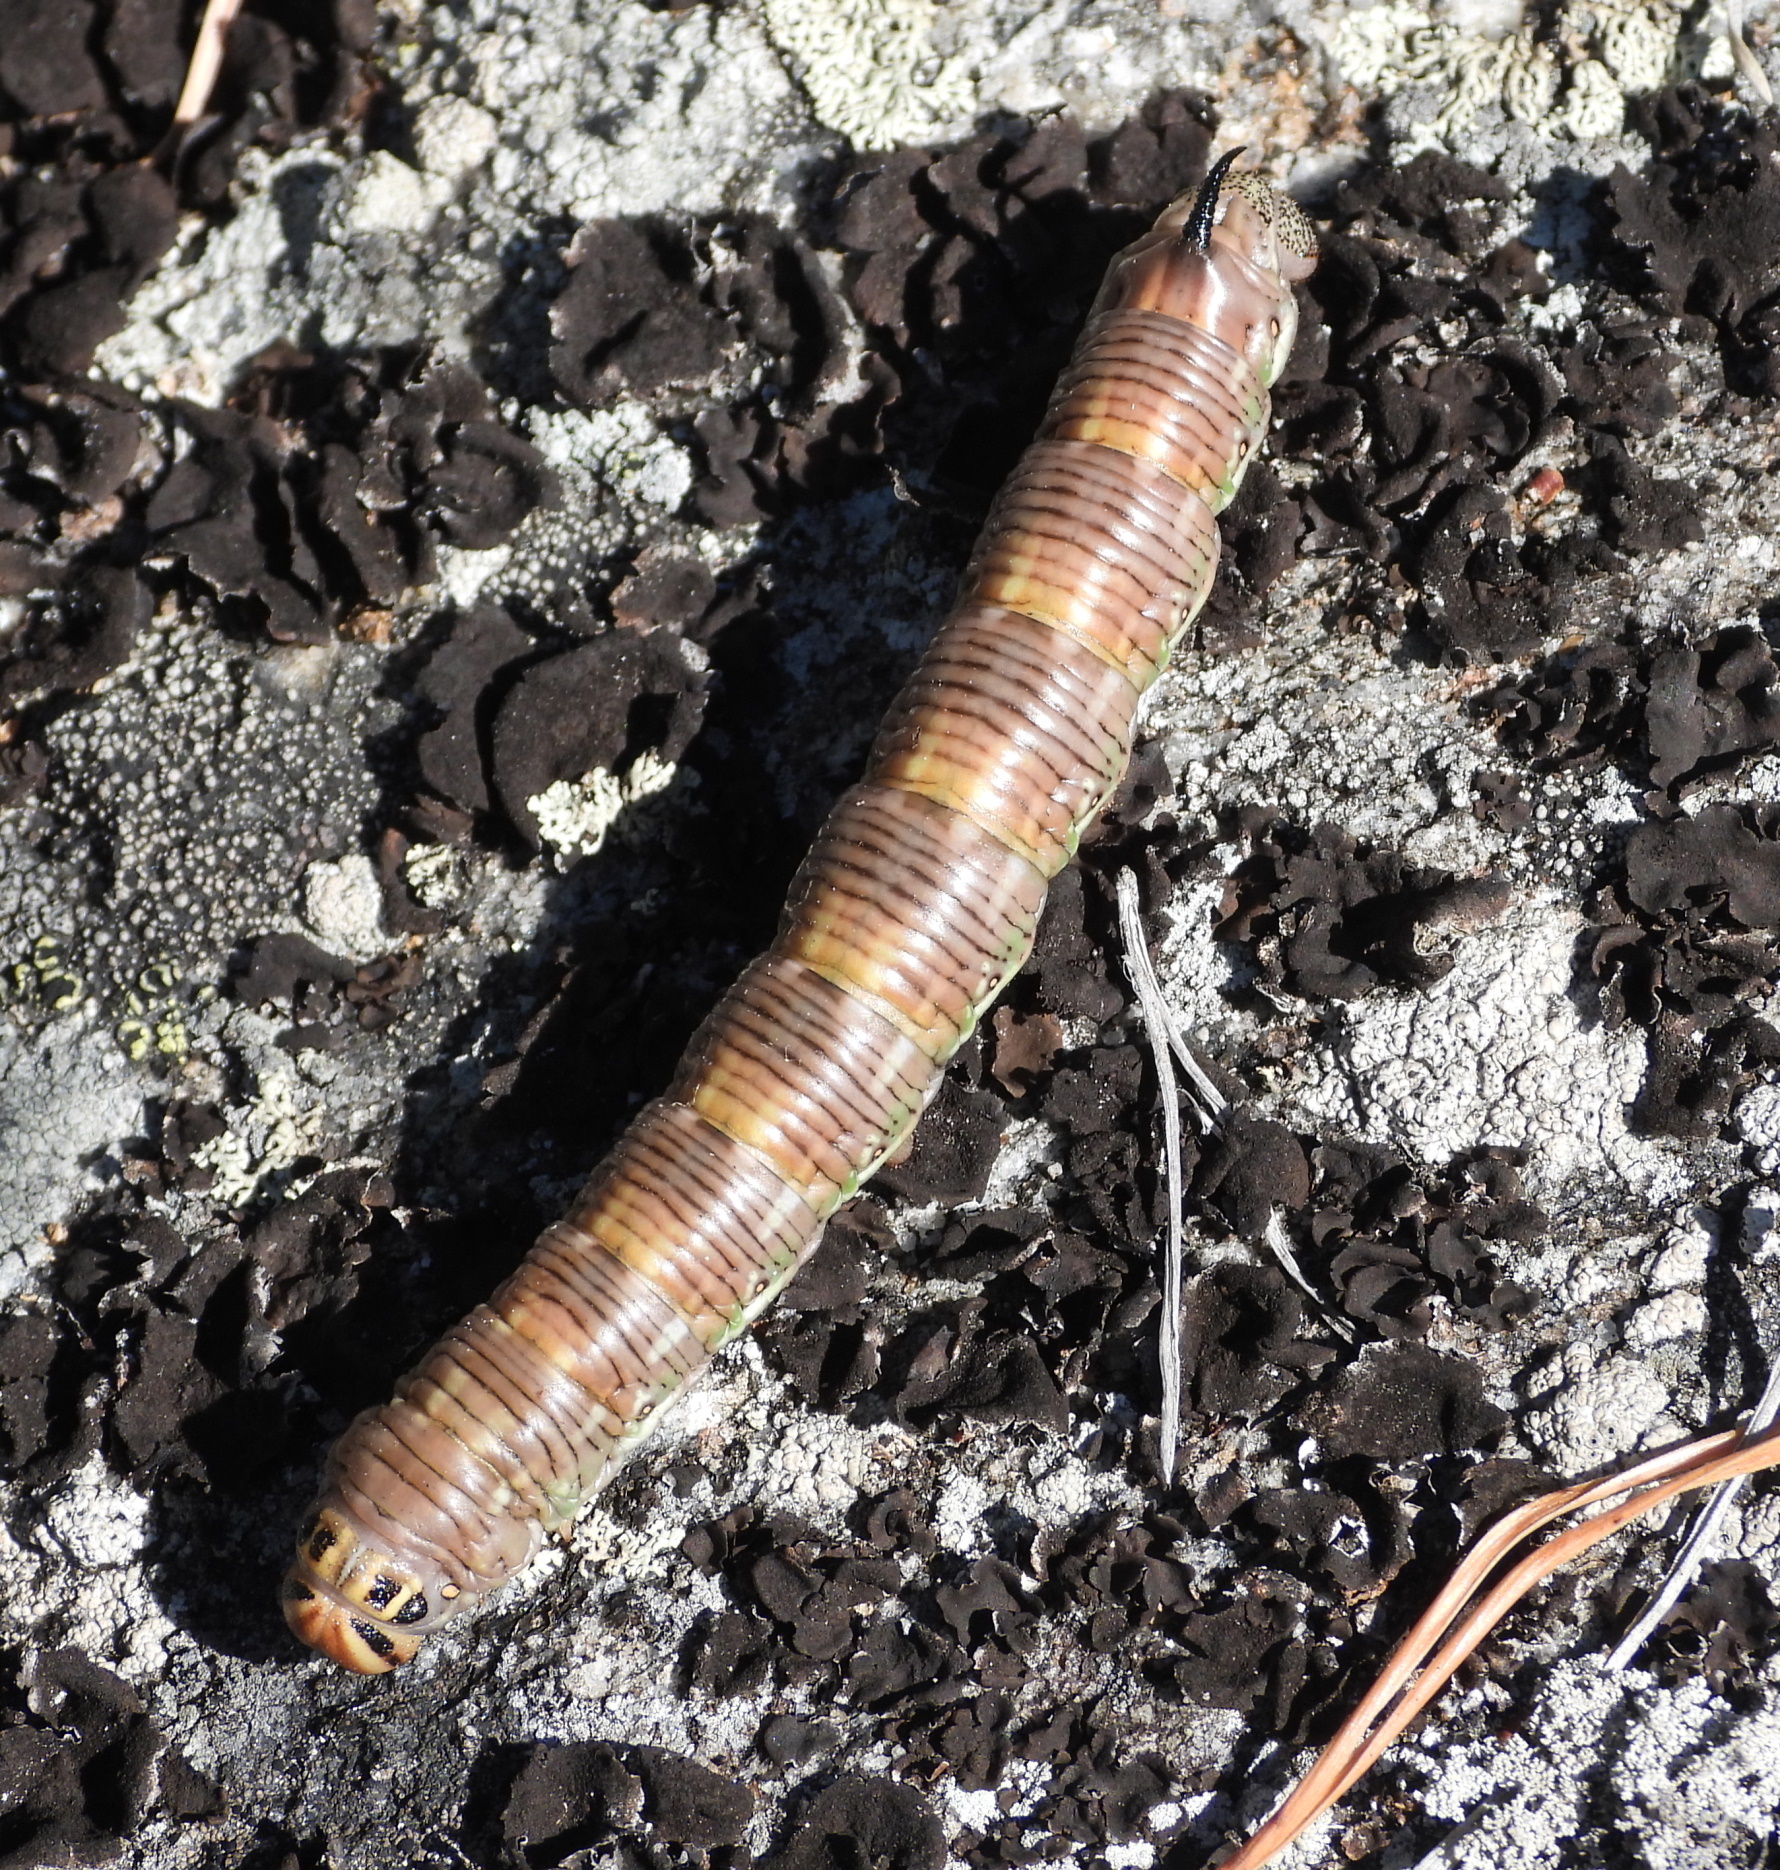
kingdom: Animalia
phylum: Arthropoda
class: Insecta
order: Lepidoptera
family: Sphingidae
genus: Sphinx
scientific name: Sphinx pinastri
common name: Pine hawk-moth
